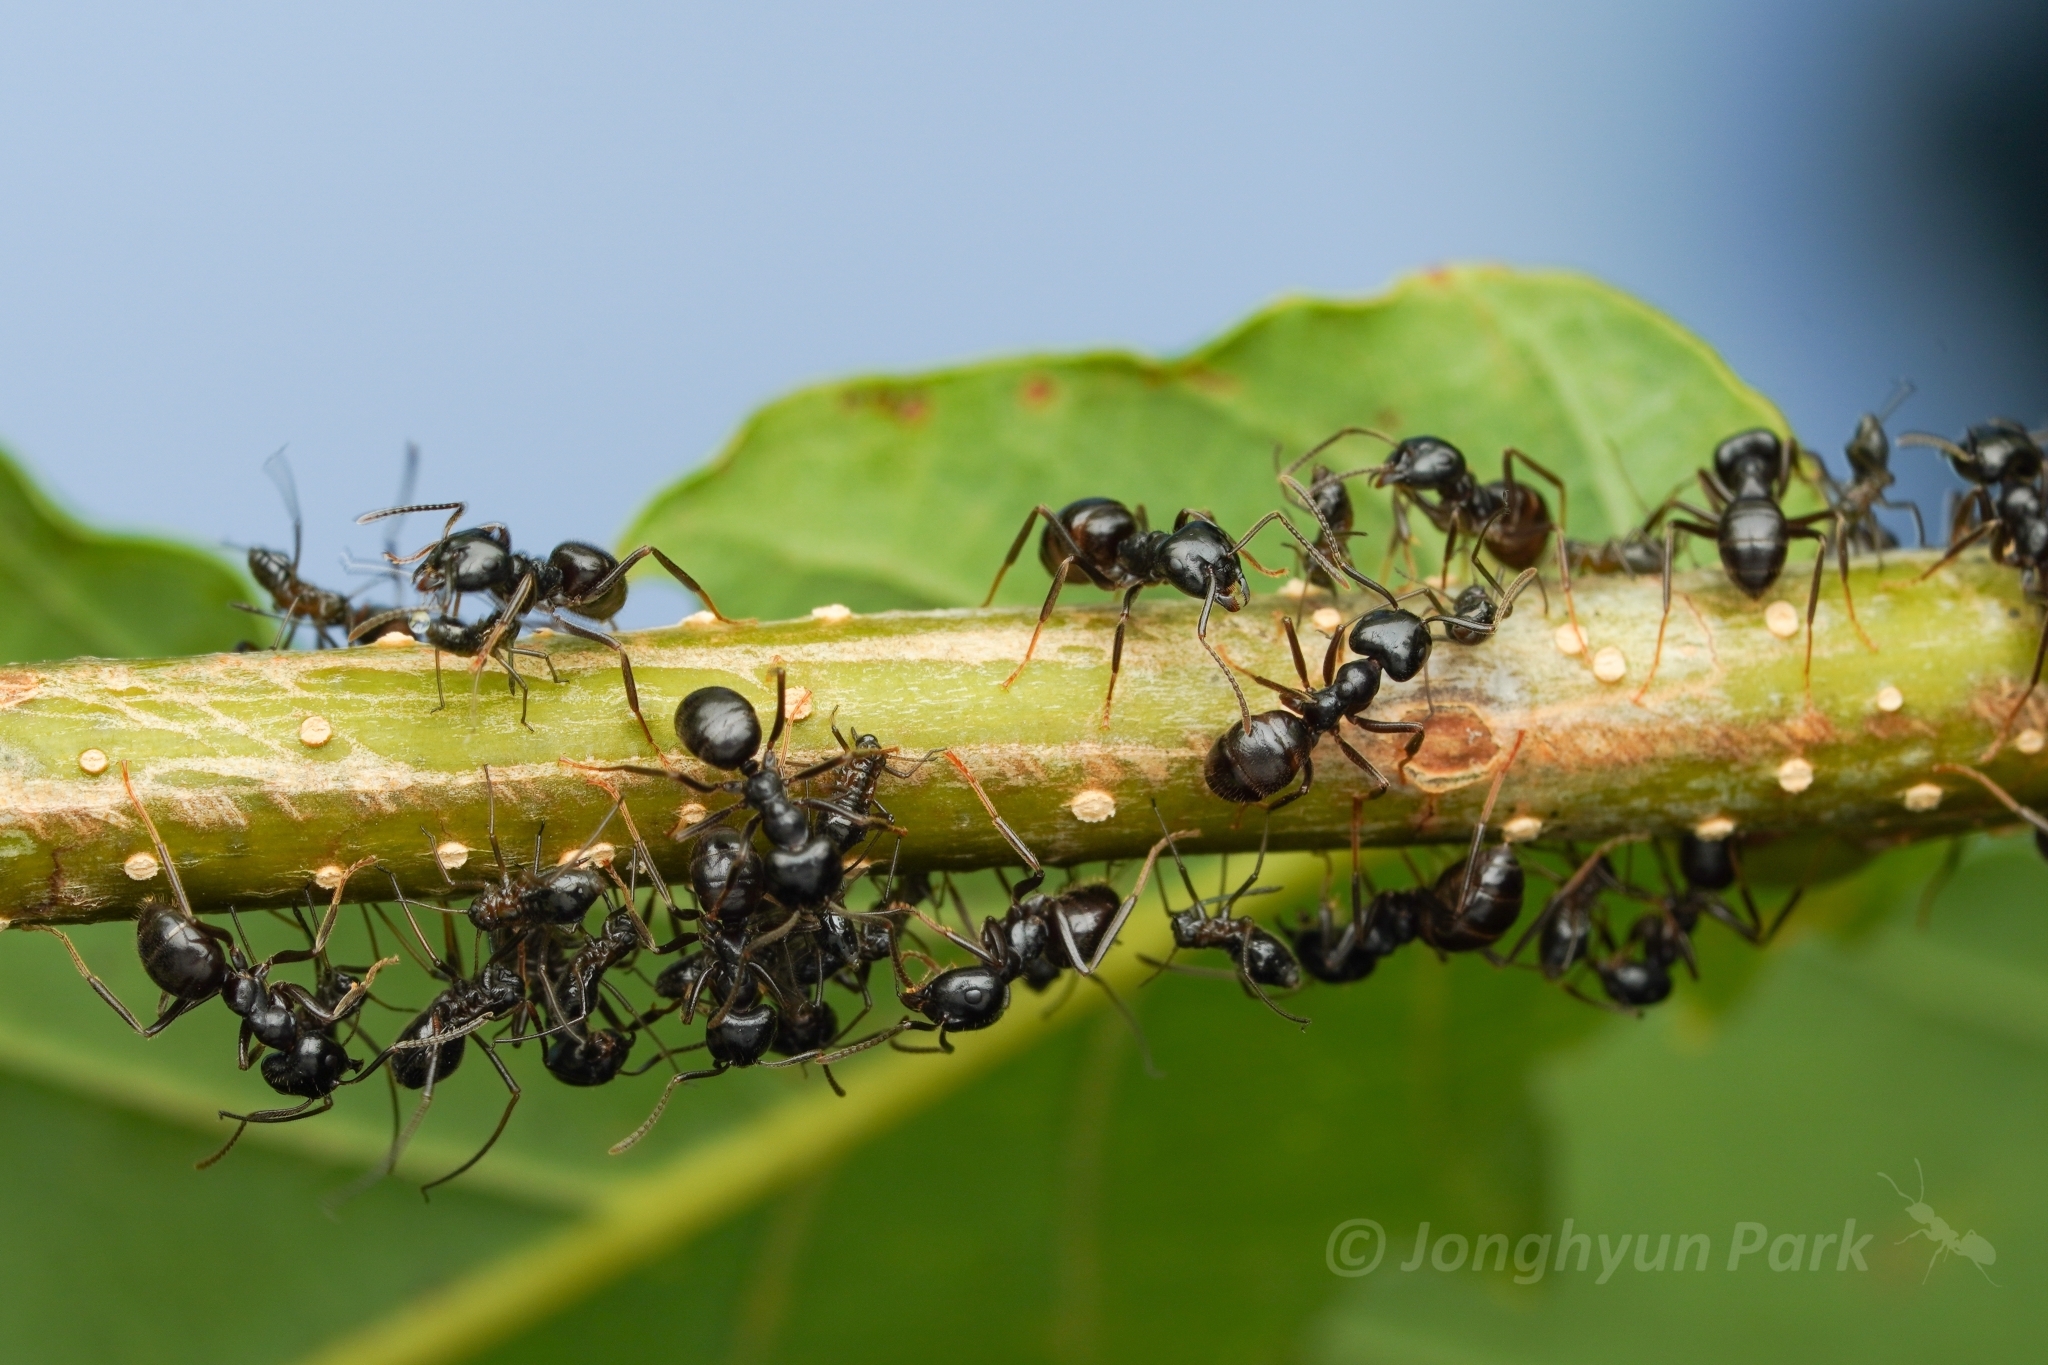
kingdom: Animalia
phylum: Arthropoda
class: Insecta
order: Hymenoptera
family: Formicidae
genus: Lasius
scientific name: Lasius spathepus
